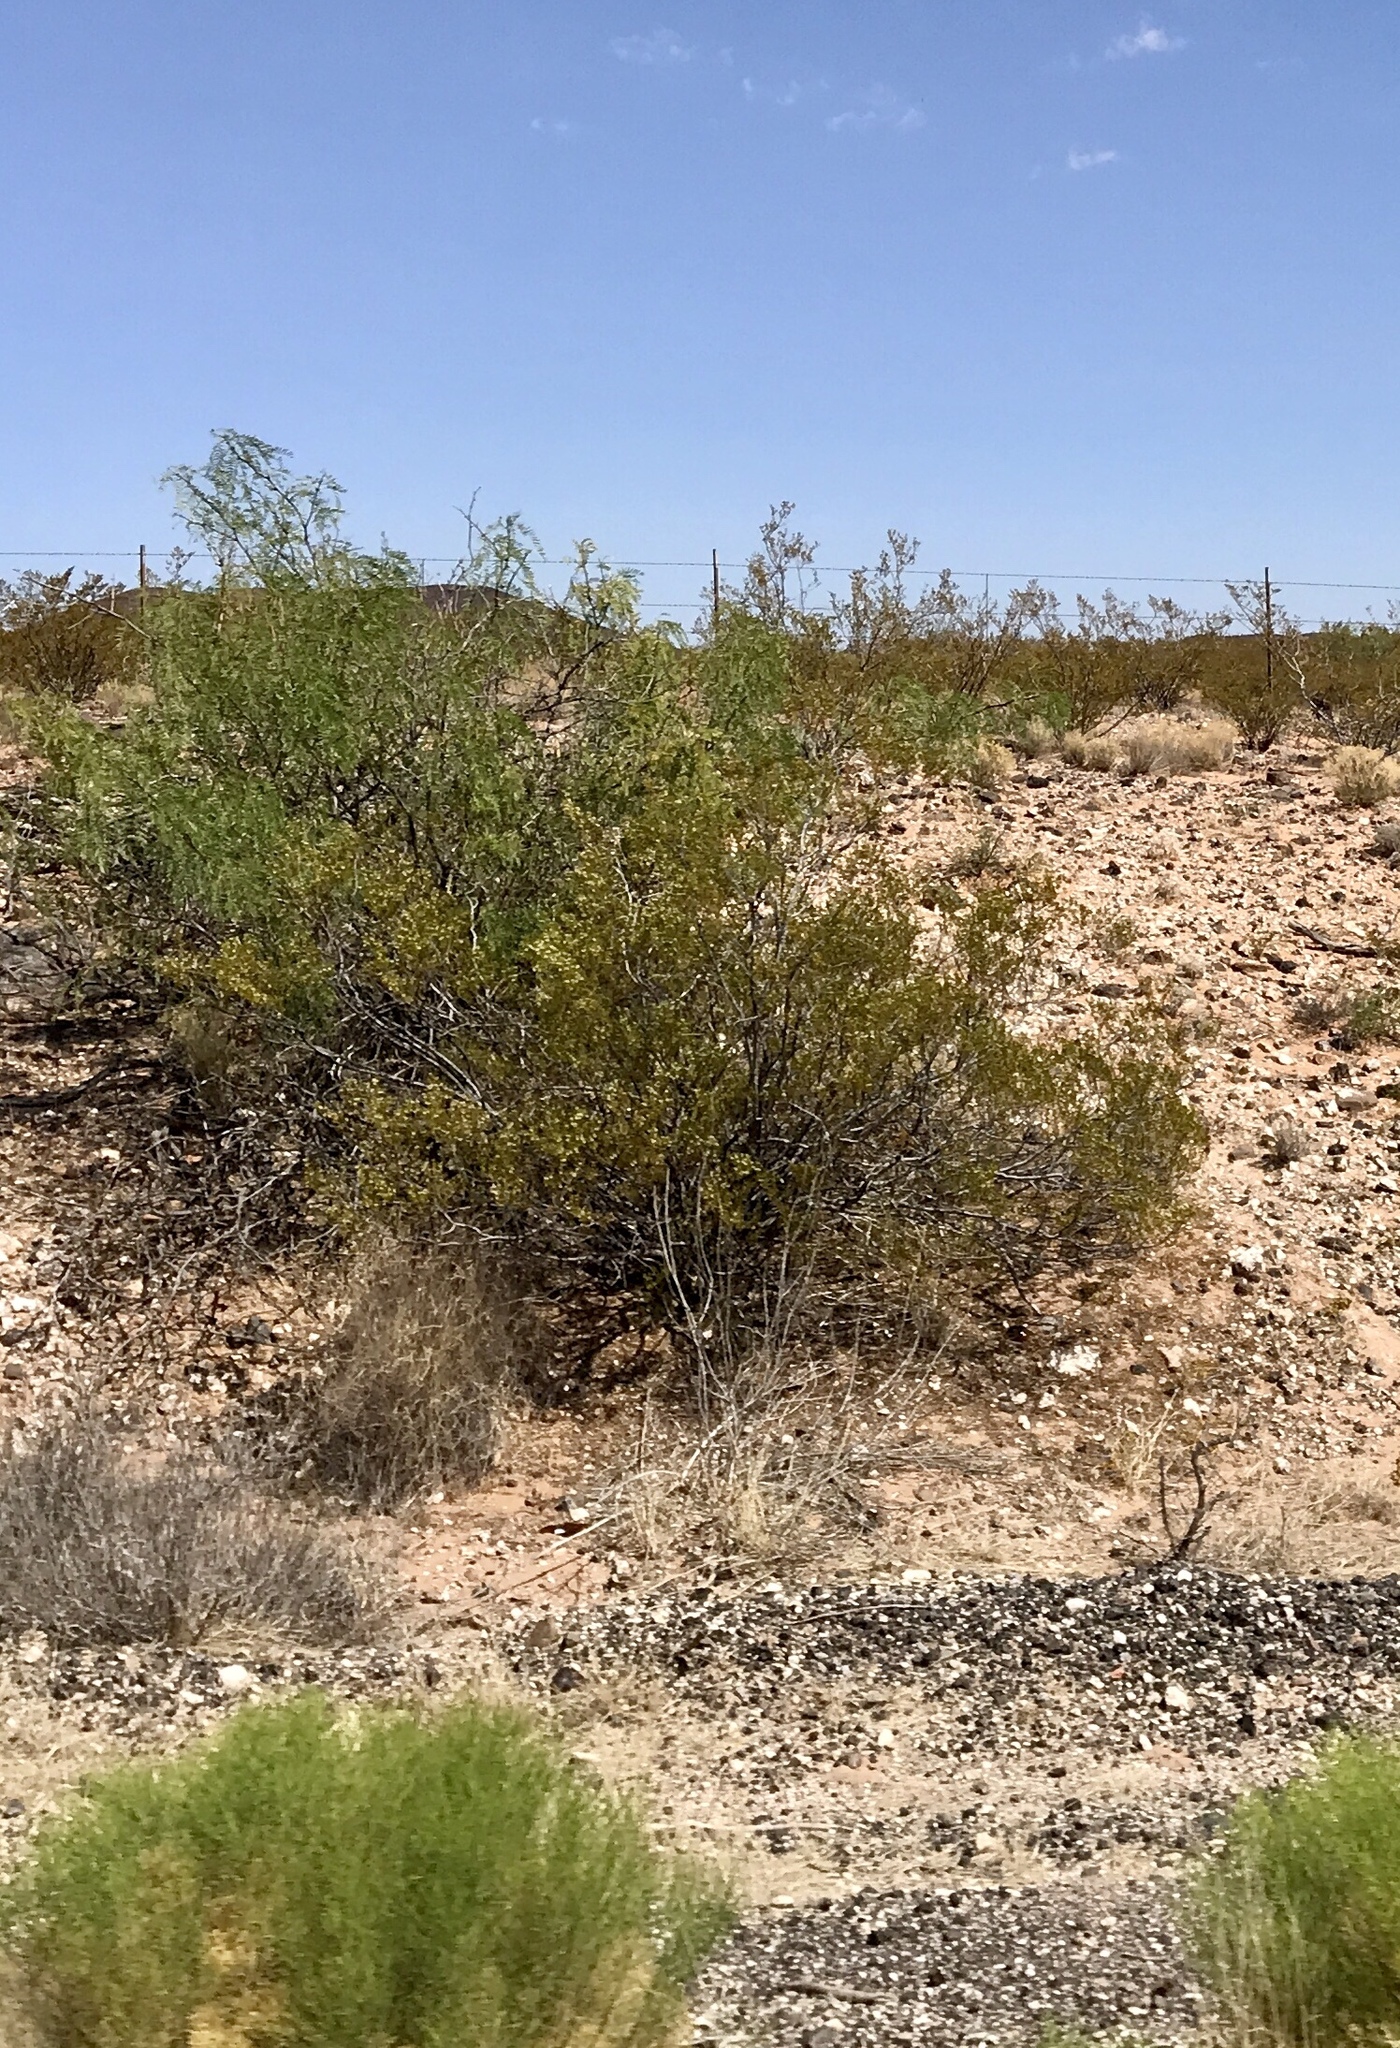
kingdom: Plantae
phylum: Tracheophyta
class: Magnoliopsida
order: Zygophyllales
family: Zygophyllaceae
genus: Larrea
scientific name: Larrea tridentata
